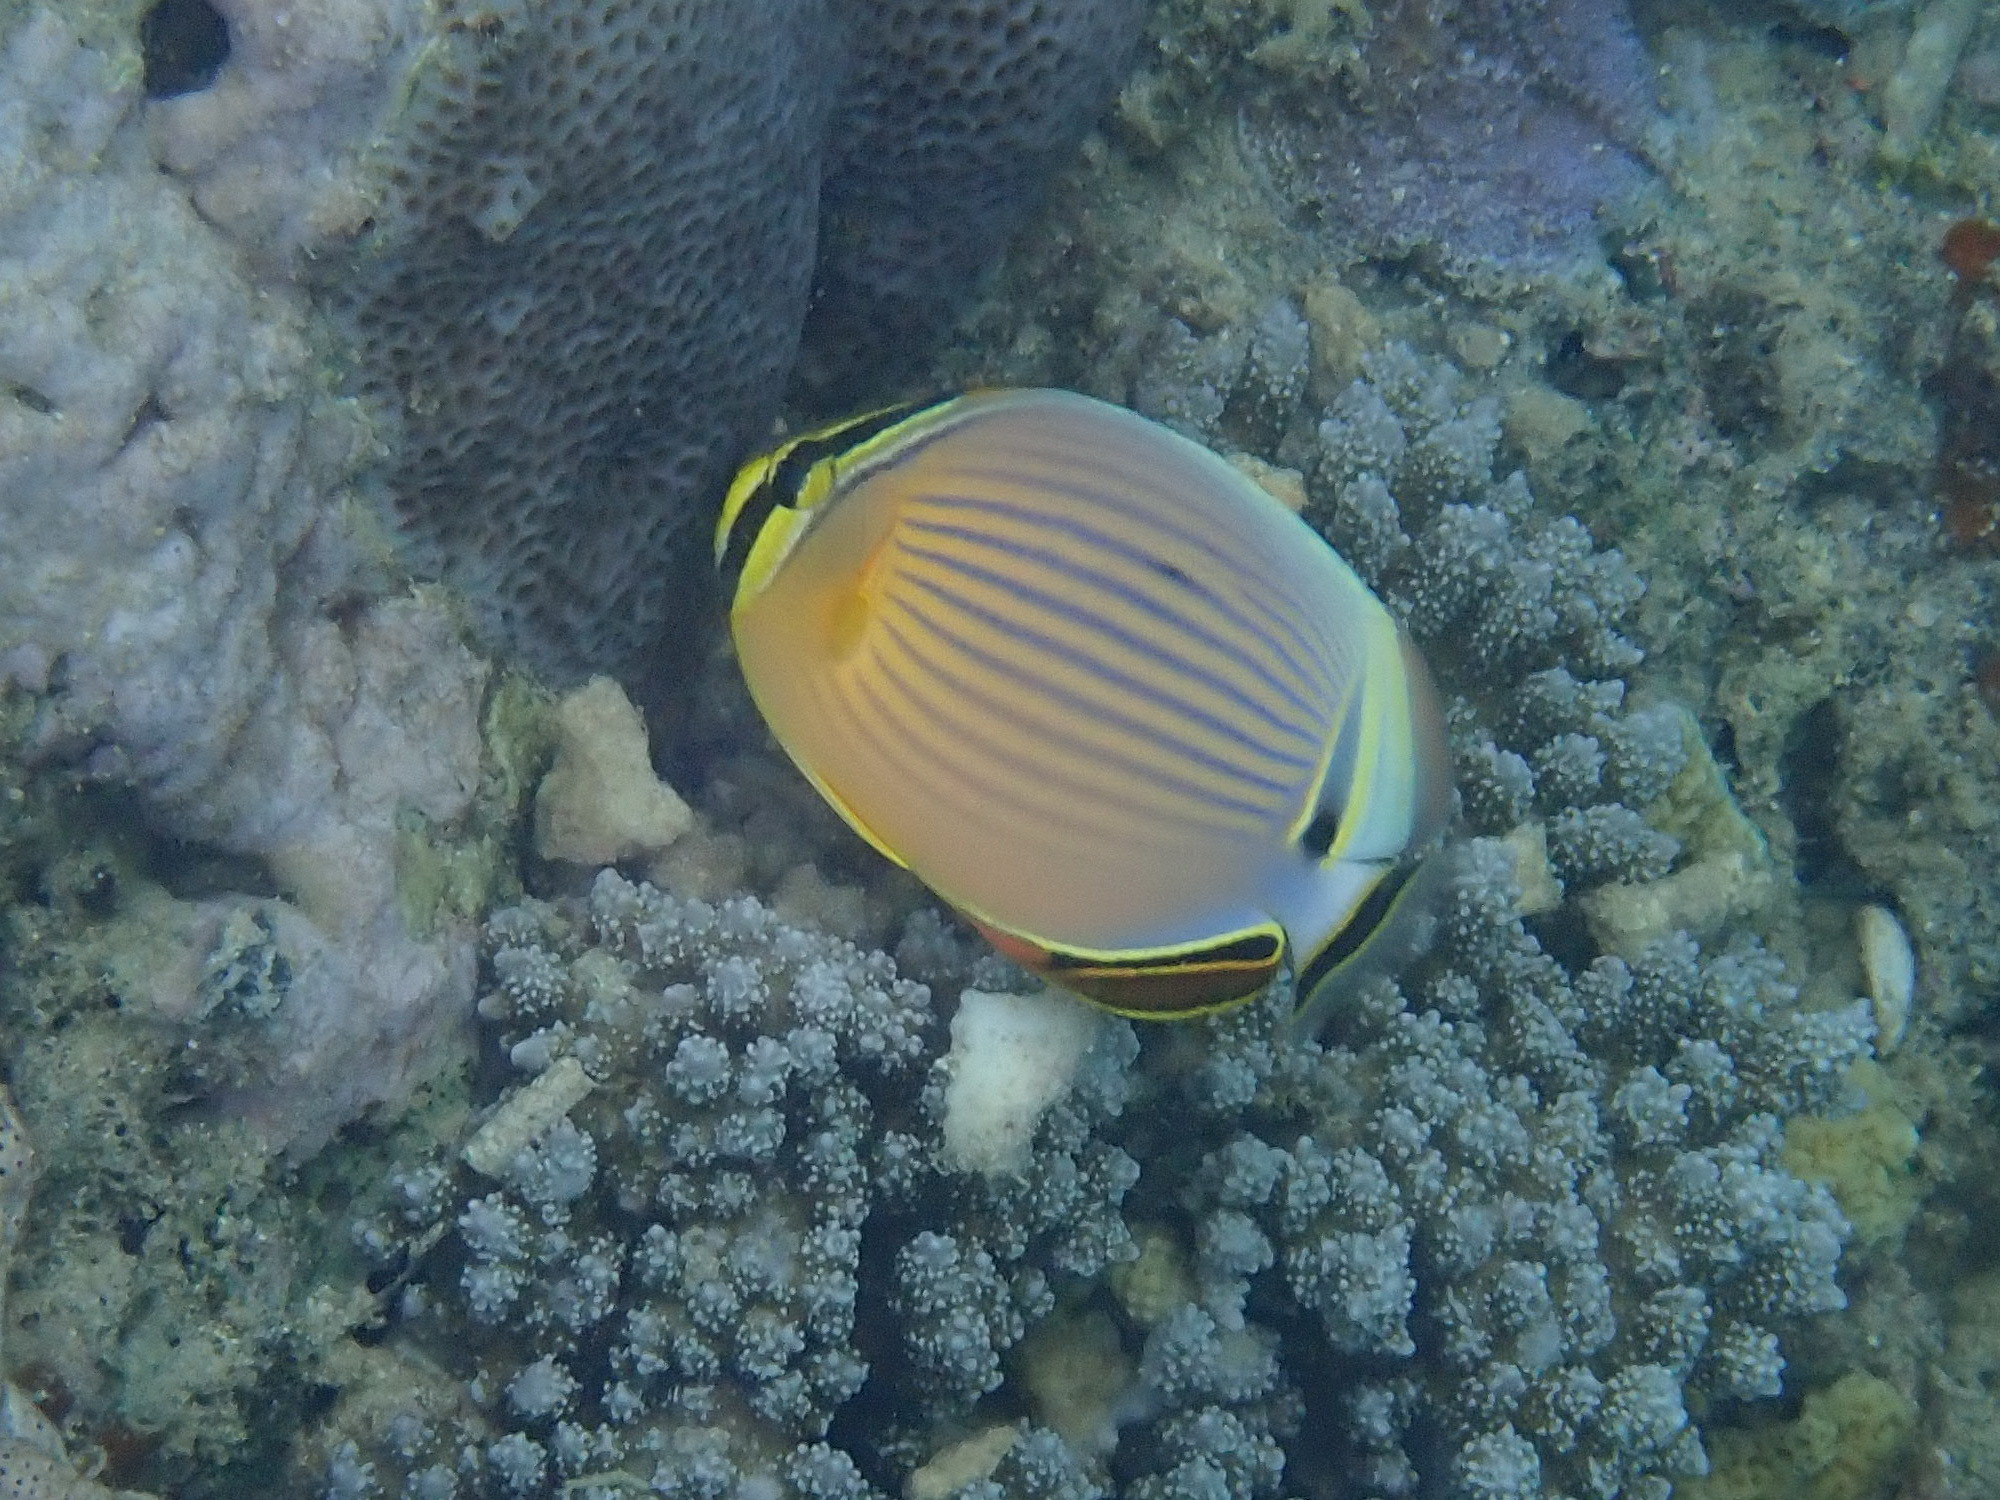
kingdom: Animalia
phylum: Chordata
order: Perciformes
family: Chaetodontidae
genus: Chaetodon
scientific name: Chaetodon lunulatus
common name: Redfin butterflyfish
